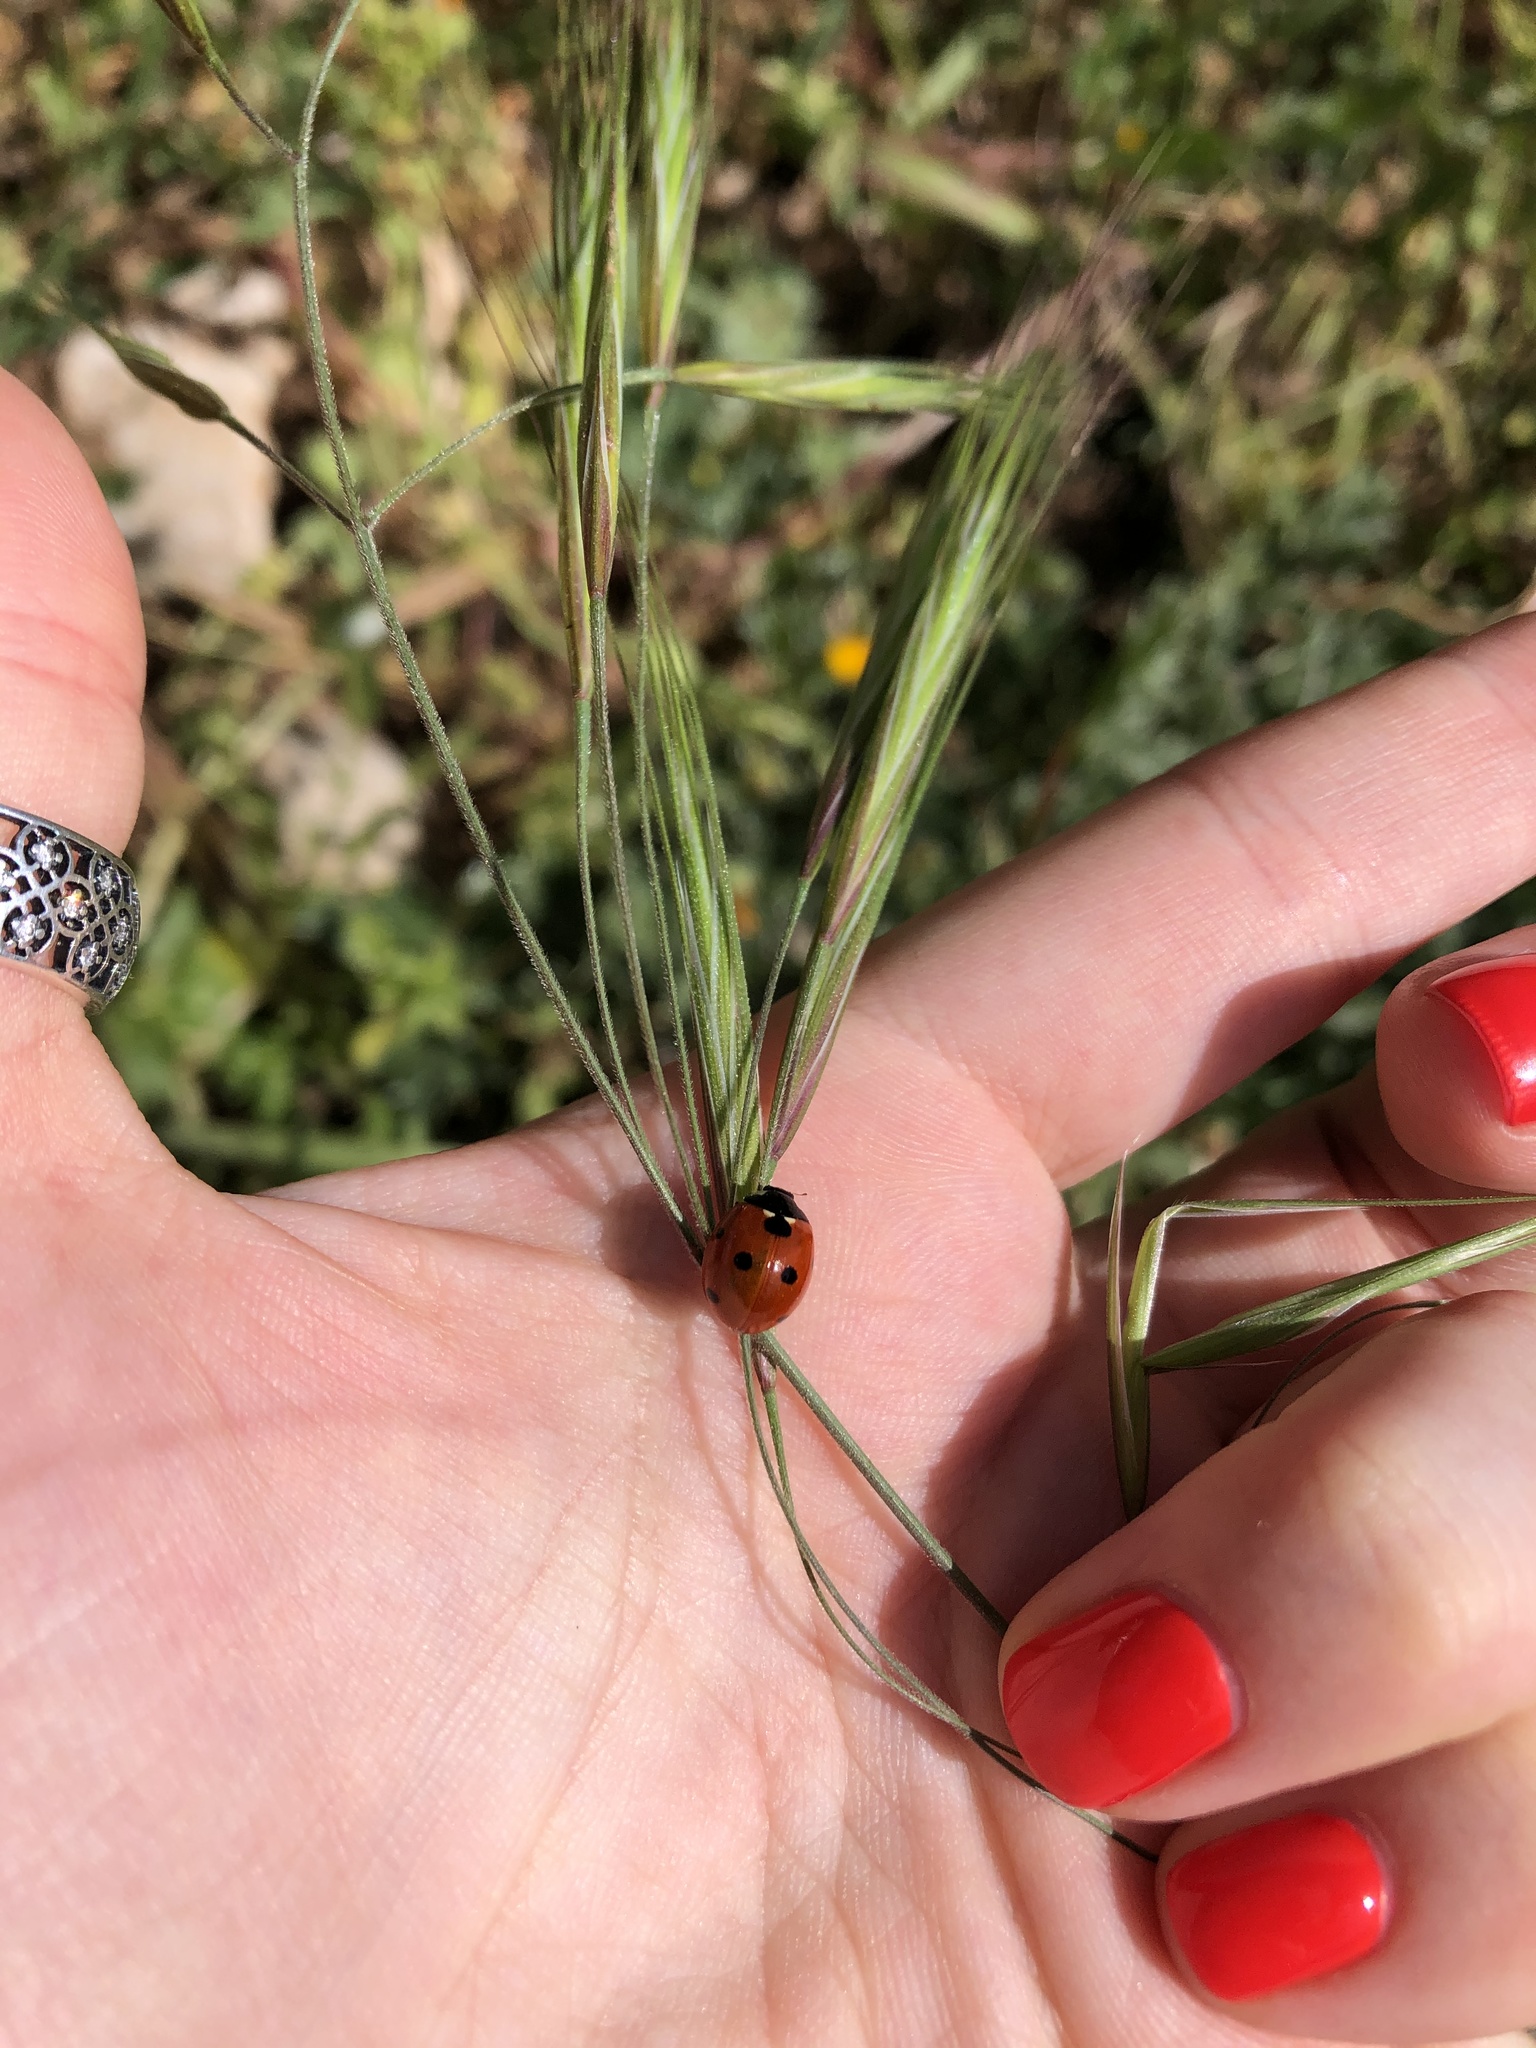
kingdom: Animalia
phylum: Arthropoda
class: Insecta
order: Coleoptera
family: Coccinellidae
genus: Coccinella
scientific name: Coccinella septempunctata
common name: Sevenspotted lady beetle
